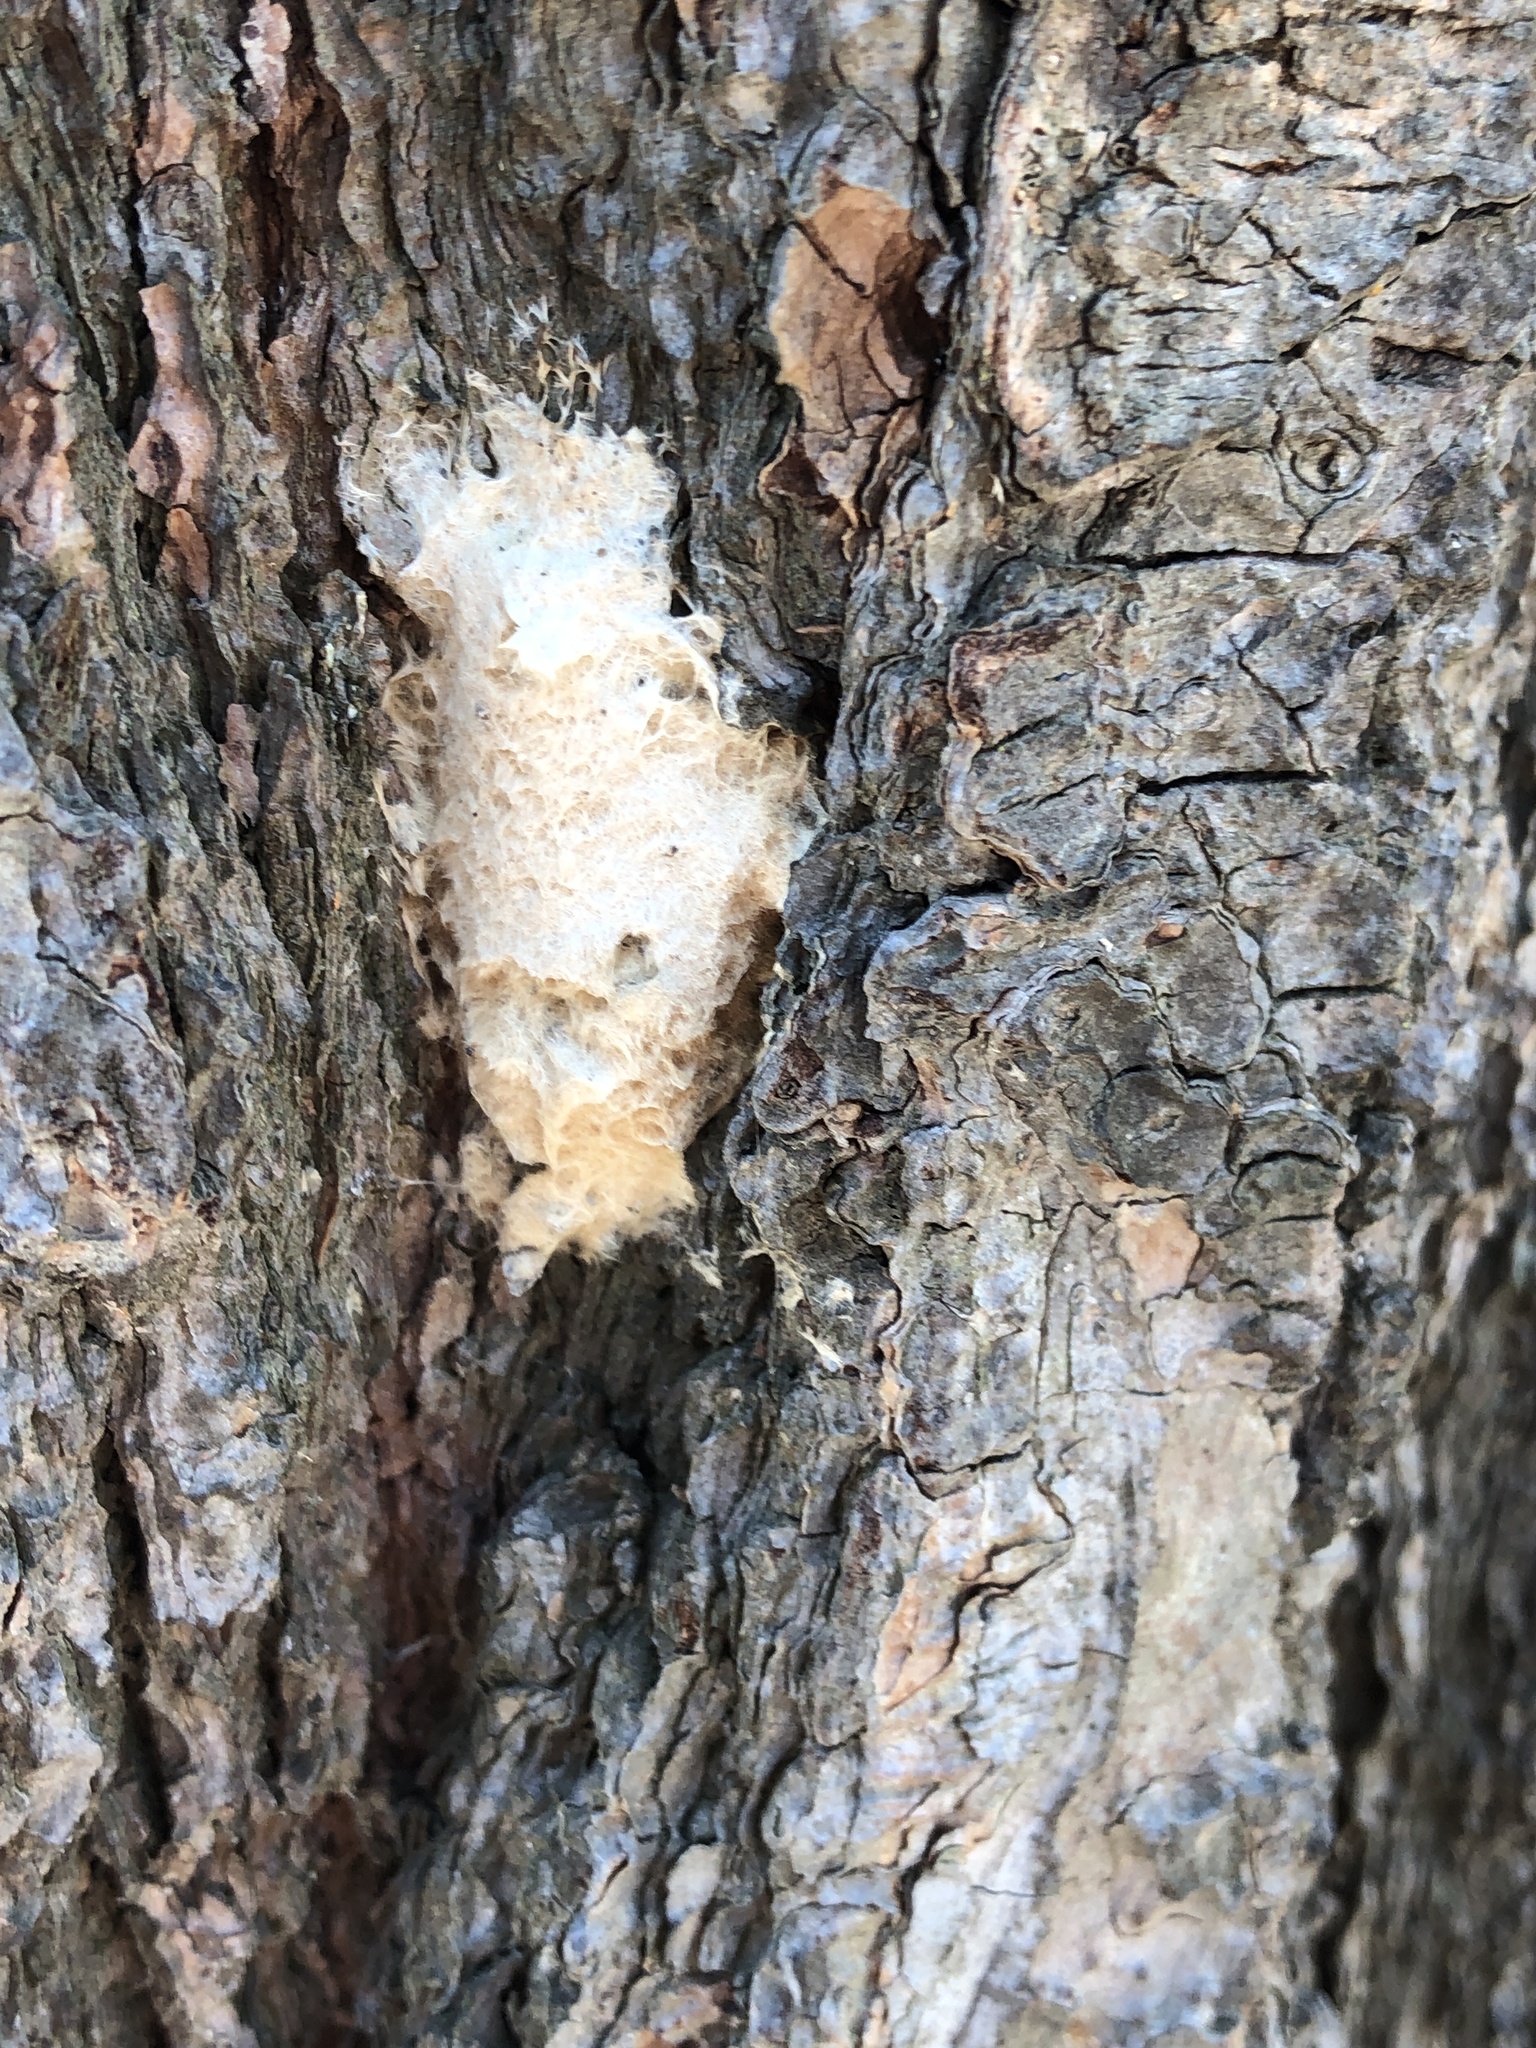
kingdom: Animalia
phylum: Arthropoda
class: Insecta
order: Lepidoptera
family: Erebidae
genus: Lymantria
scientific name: Lymantria dispar
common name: Gypsy moth
